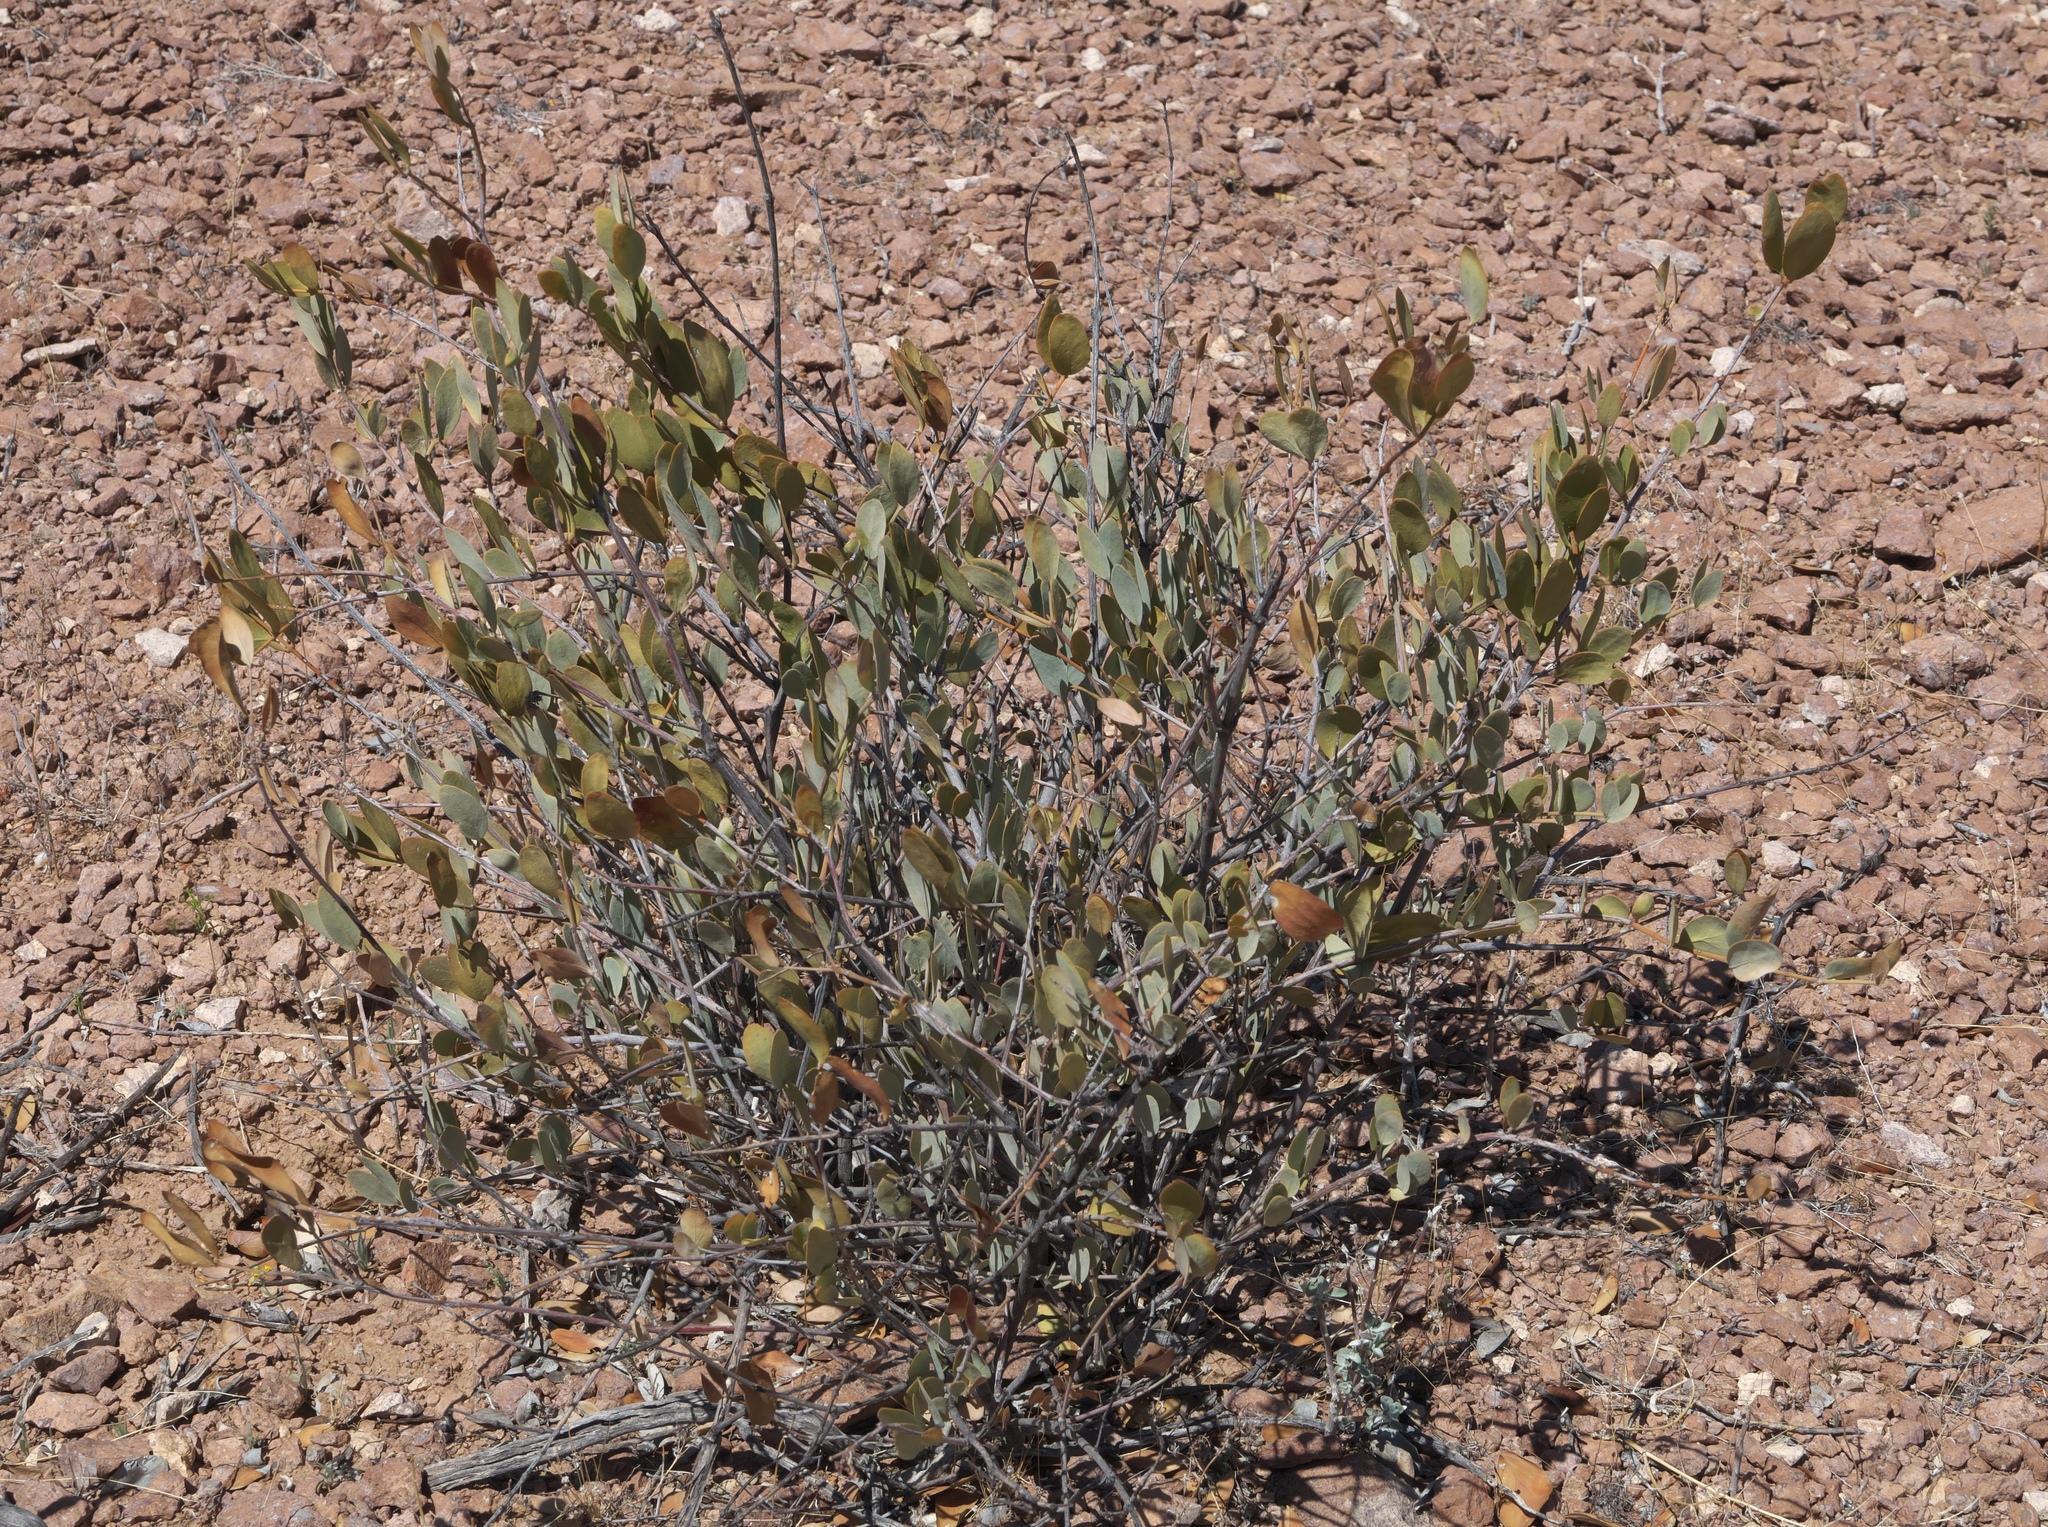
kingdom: Plantae
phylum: Tracheophyta
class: Magnoliopsida
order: Caryophyllales
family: Simmondsiaceae
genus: Simmondsia
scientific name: Simmondsia chinensis
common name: Jojoba
